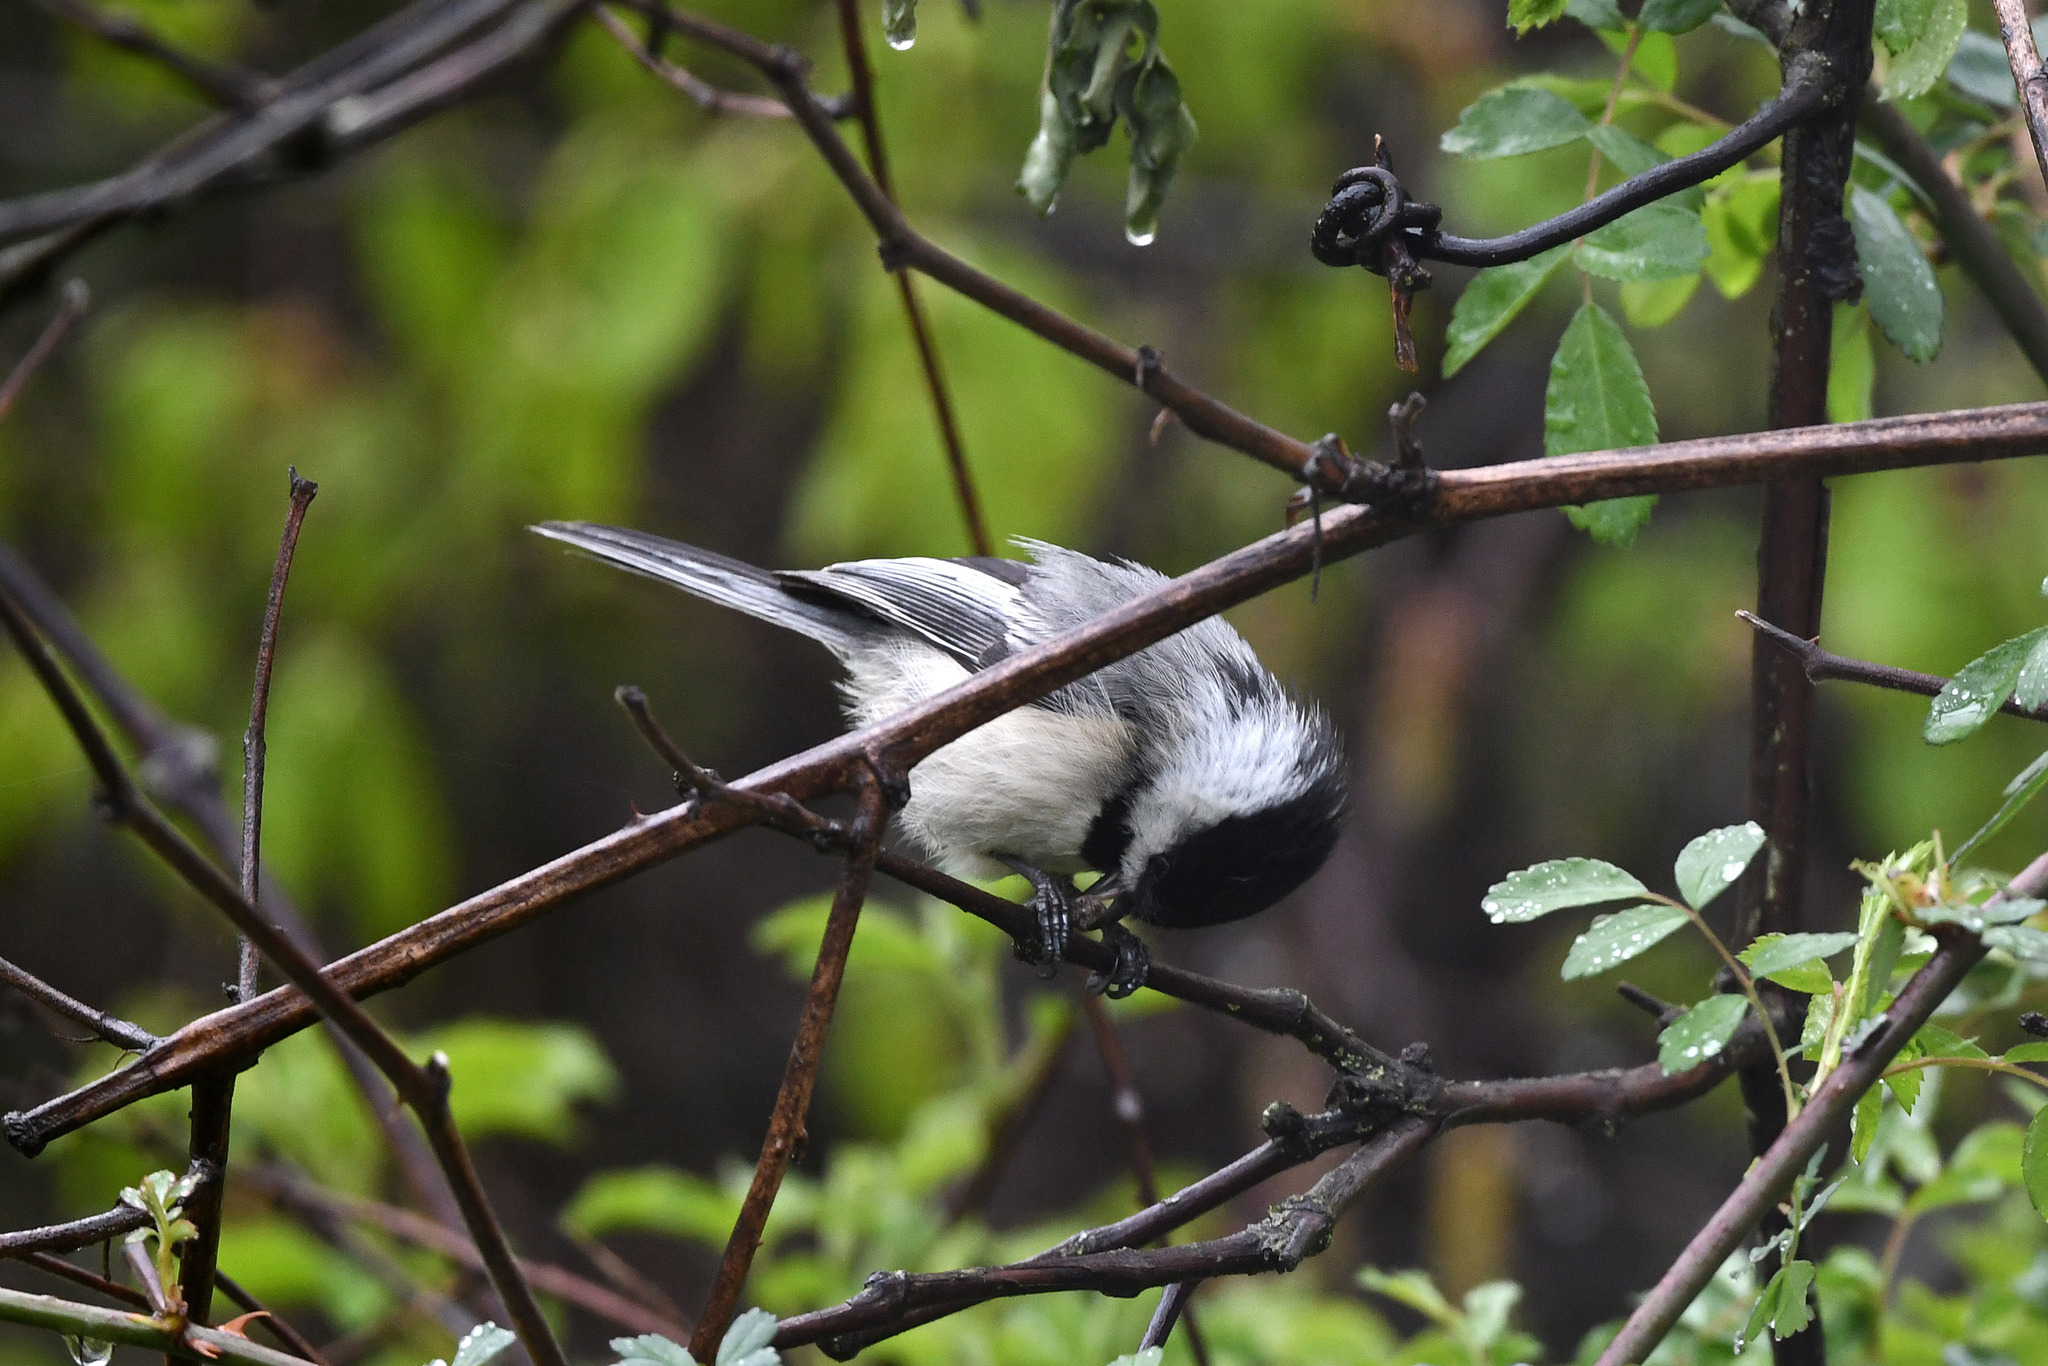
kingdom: Animalia
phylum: Chordata
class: Aves
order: Passeriformes
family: Paridae
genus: Poecile
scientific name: Poecile atricapillus
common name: Black-capped chickadee
